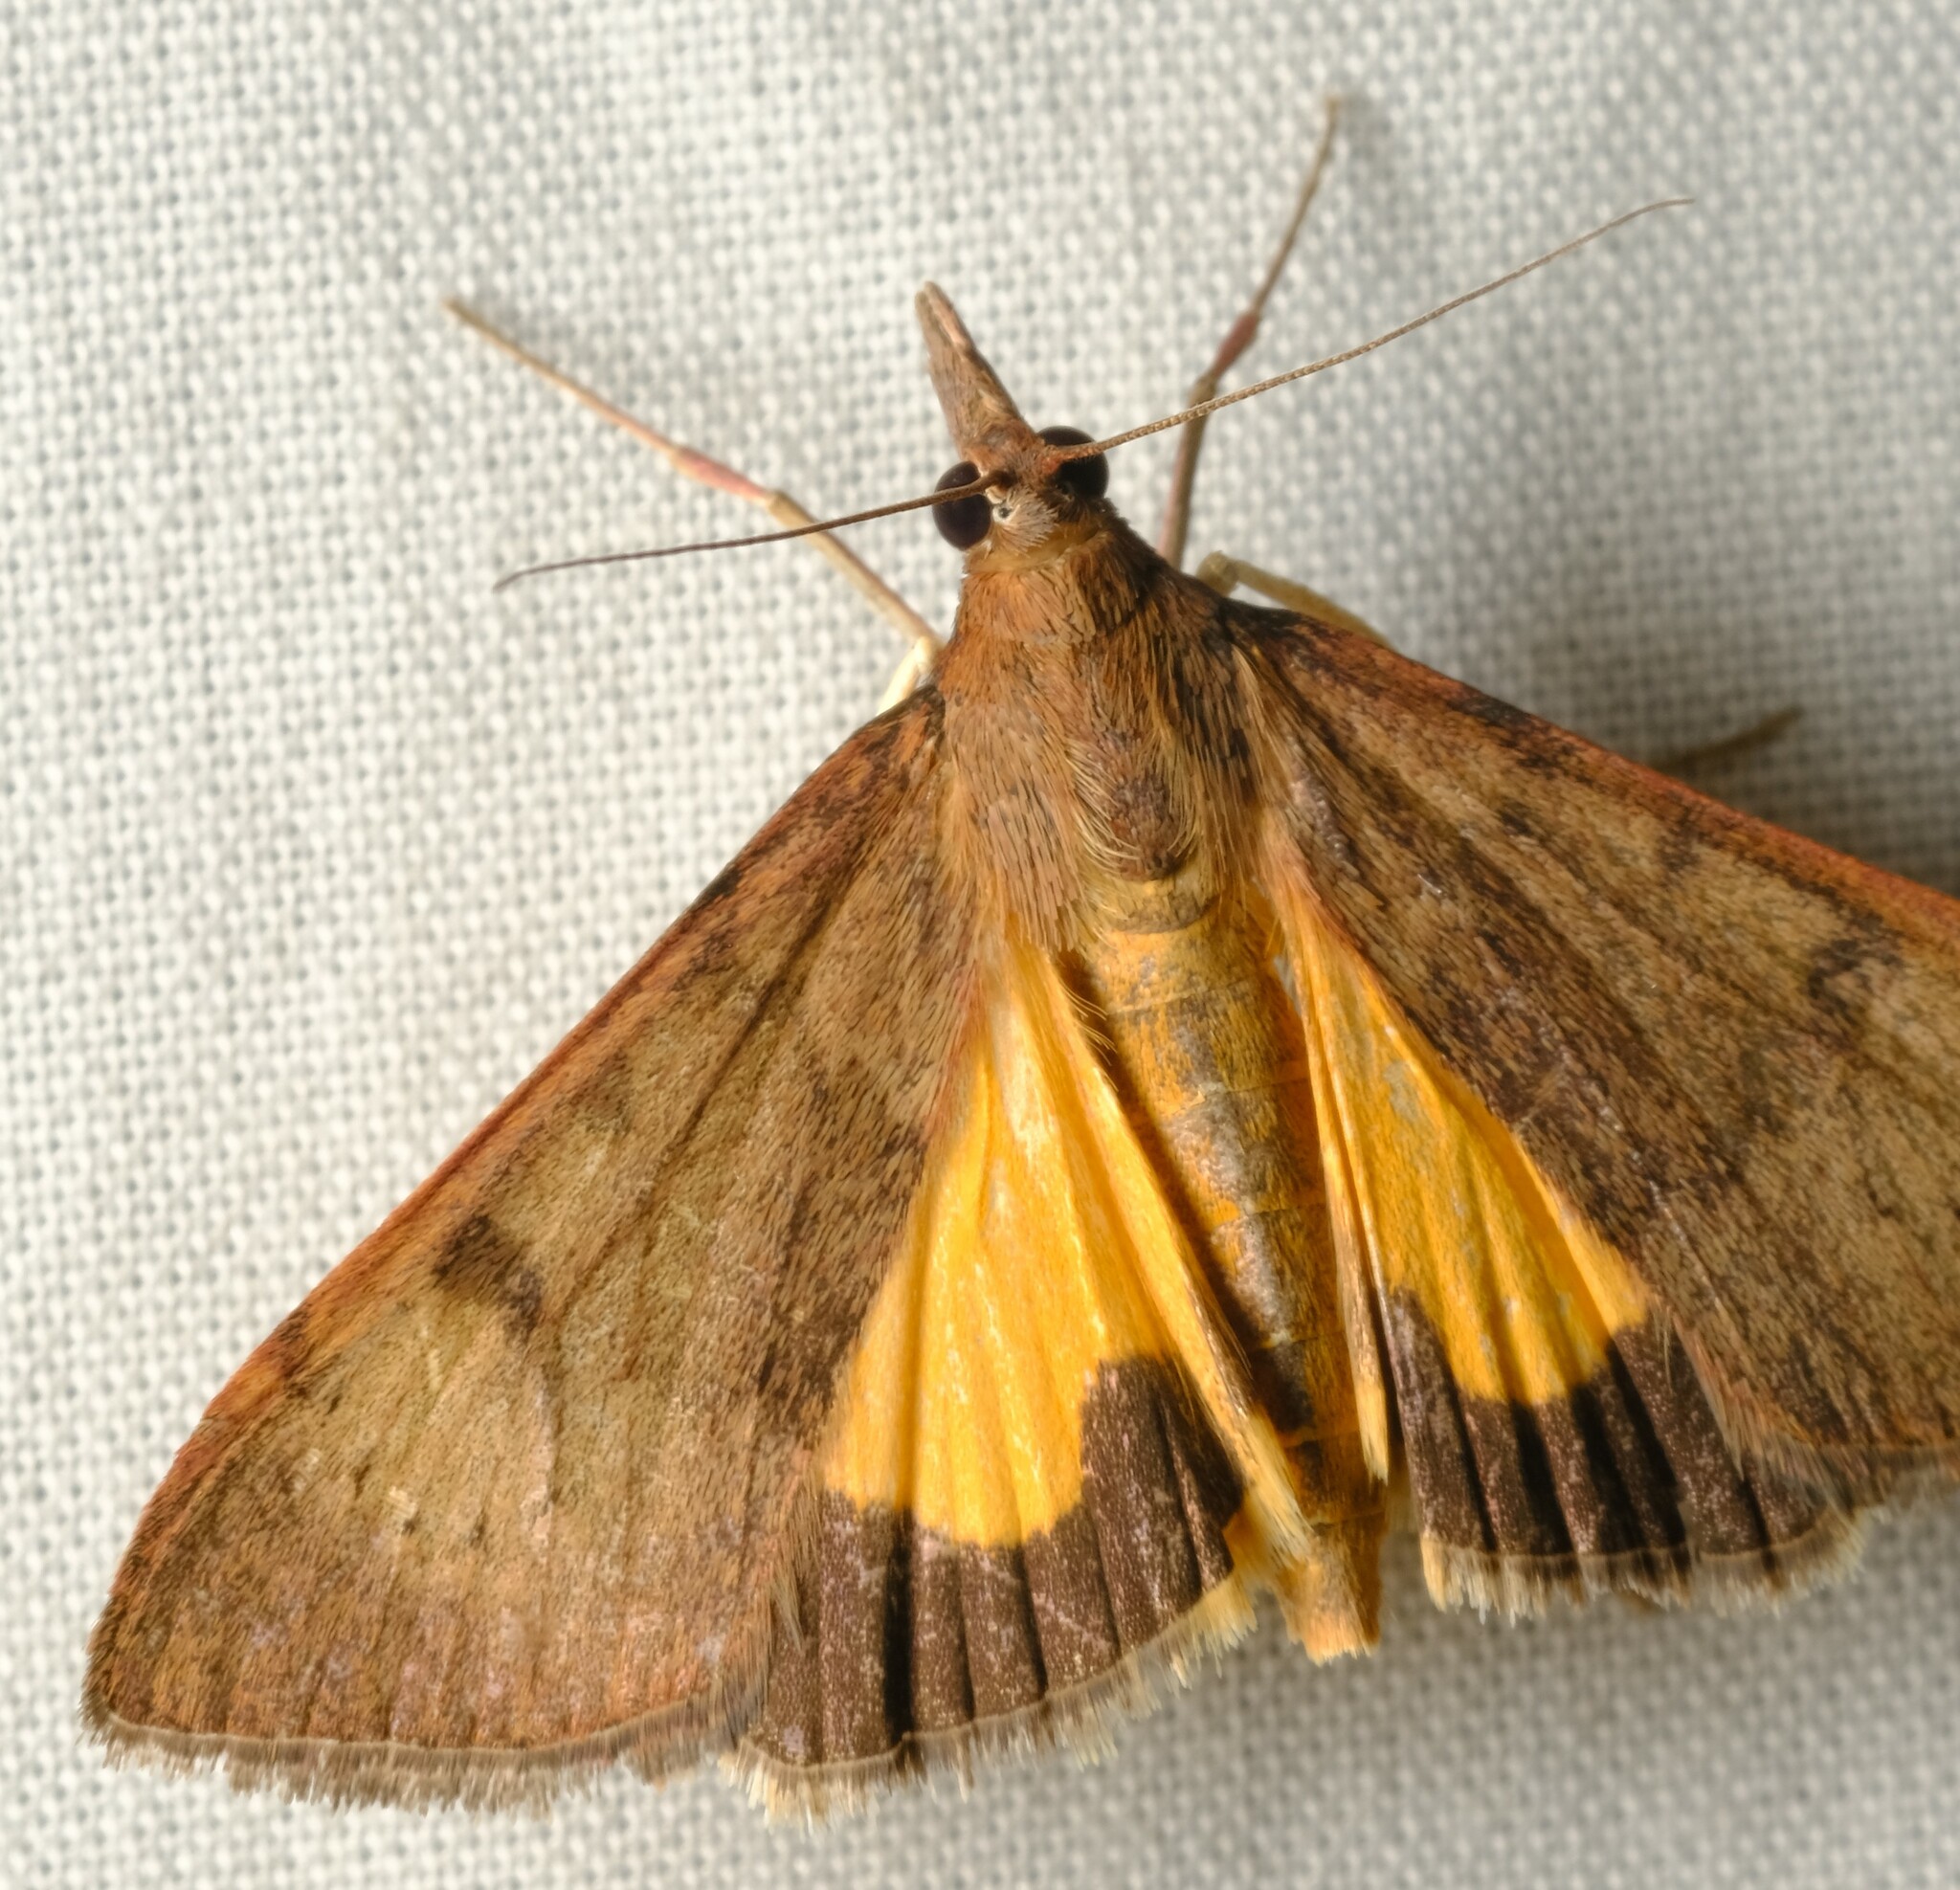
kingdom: Animalia
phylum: Arthropoda
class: Insecta
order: Lepidoptera
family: Crambidae
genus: Uresiphita
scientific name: Uresiphita ornithopteralis
